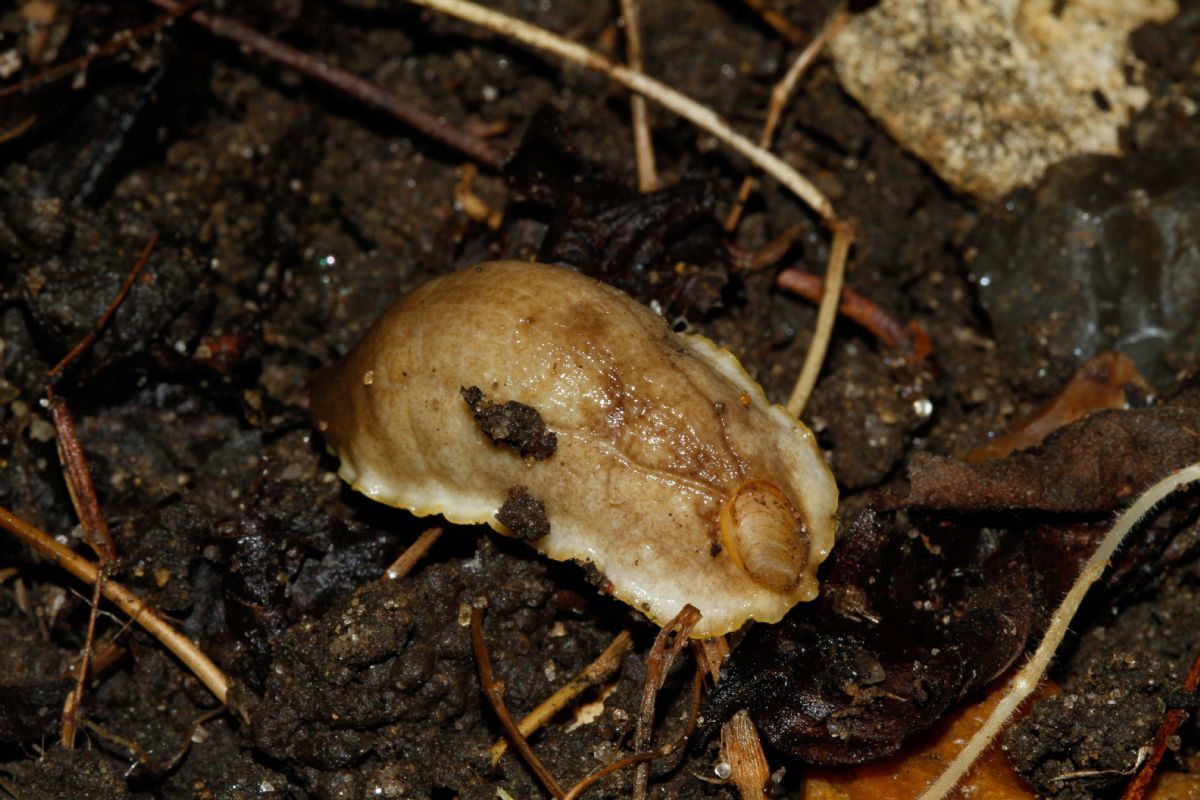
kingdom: Animalia
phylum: Mollusca
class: Gastropoda
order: Stylommatophora
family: Testacellidae
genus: Testacella
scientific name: Testacella haliotidea
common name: Shelled slug
